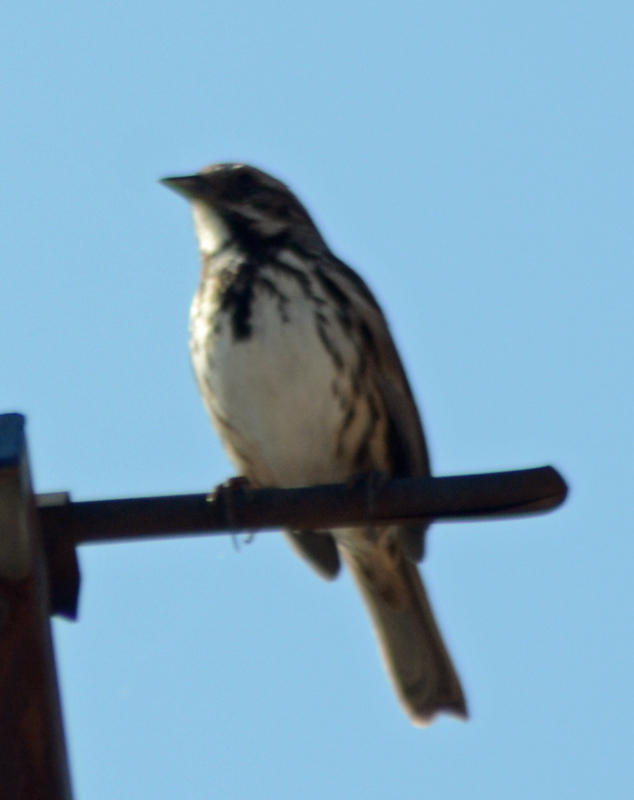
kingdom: Animalia
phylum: Chordata
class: Aves
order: Passeriformes
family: Passerellidae
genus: Melospiza
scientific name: Melospiza melodia
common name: Song sparrow
